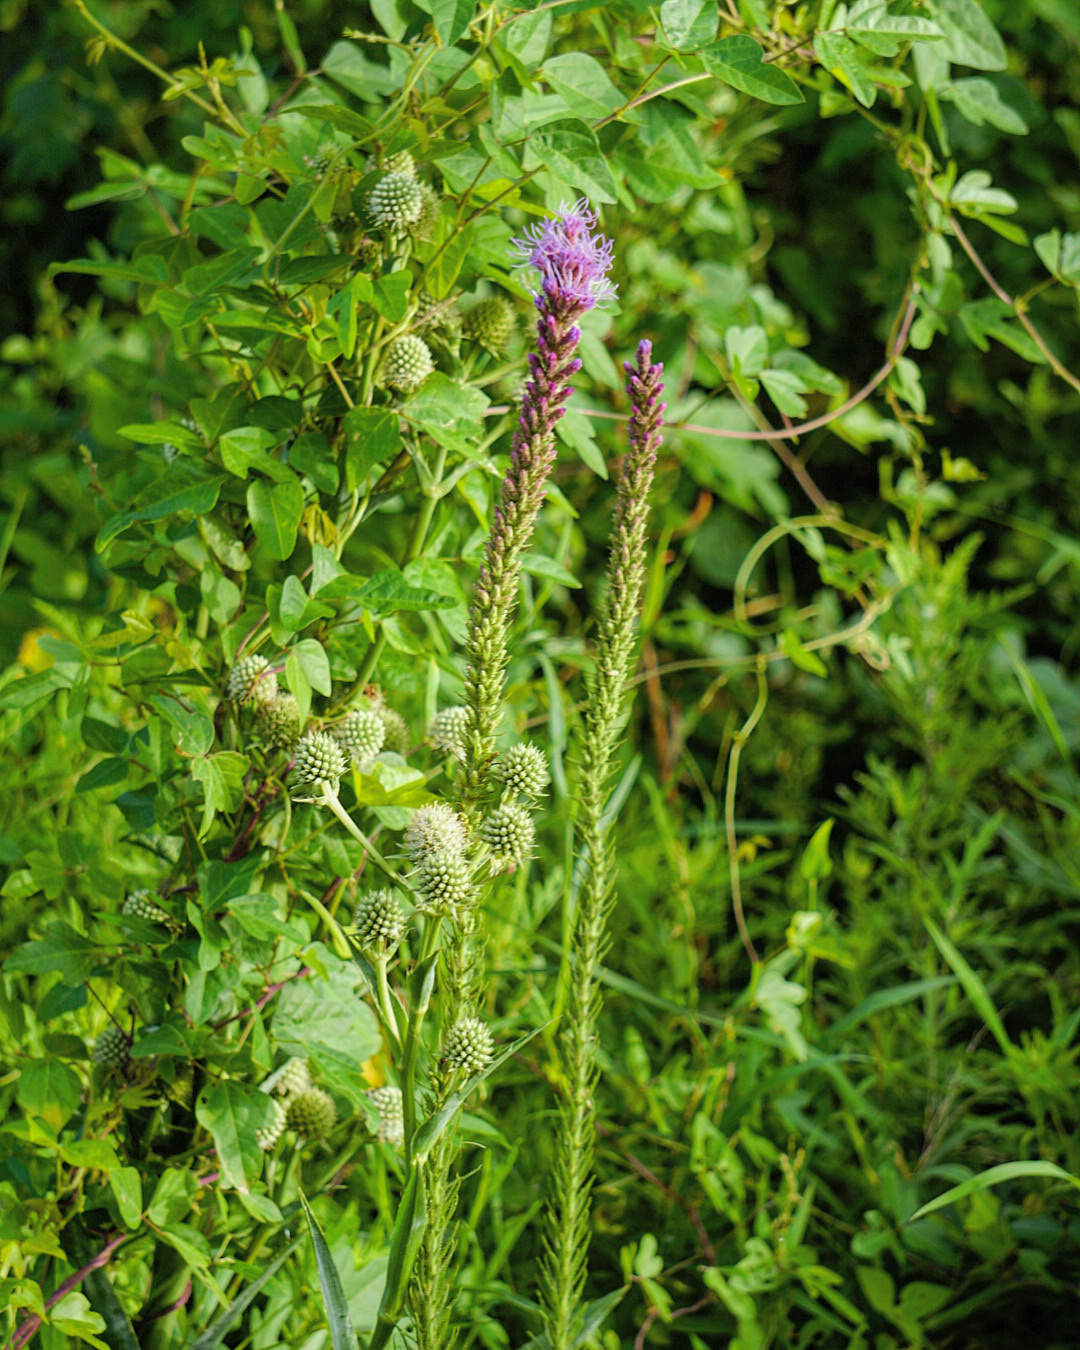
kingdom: Plantae
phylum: Tracheophyta
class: Magnoliopsida
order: Asterales
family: Asteraceae
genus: Liatris
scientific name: Liatris pycnostachya
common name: Cattail gayfeather
